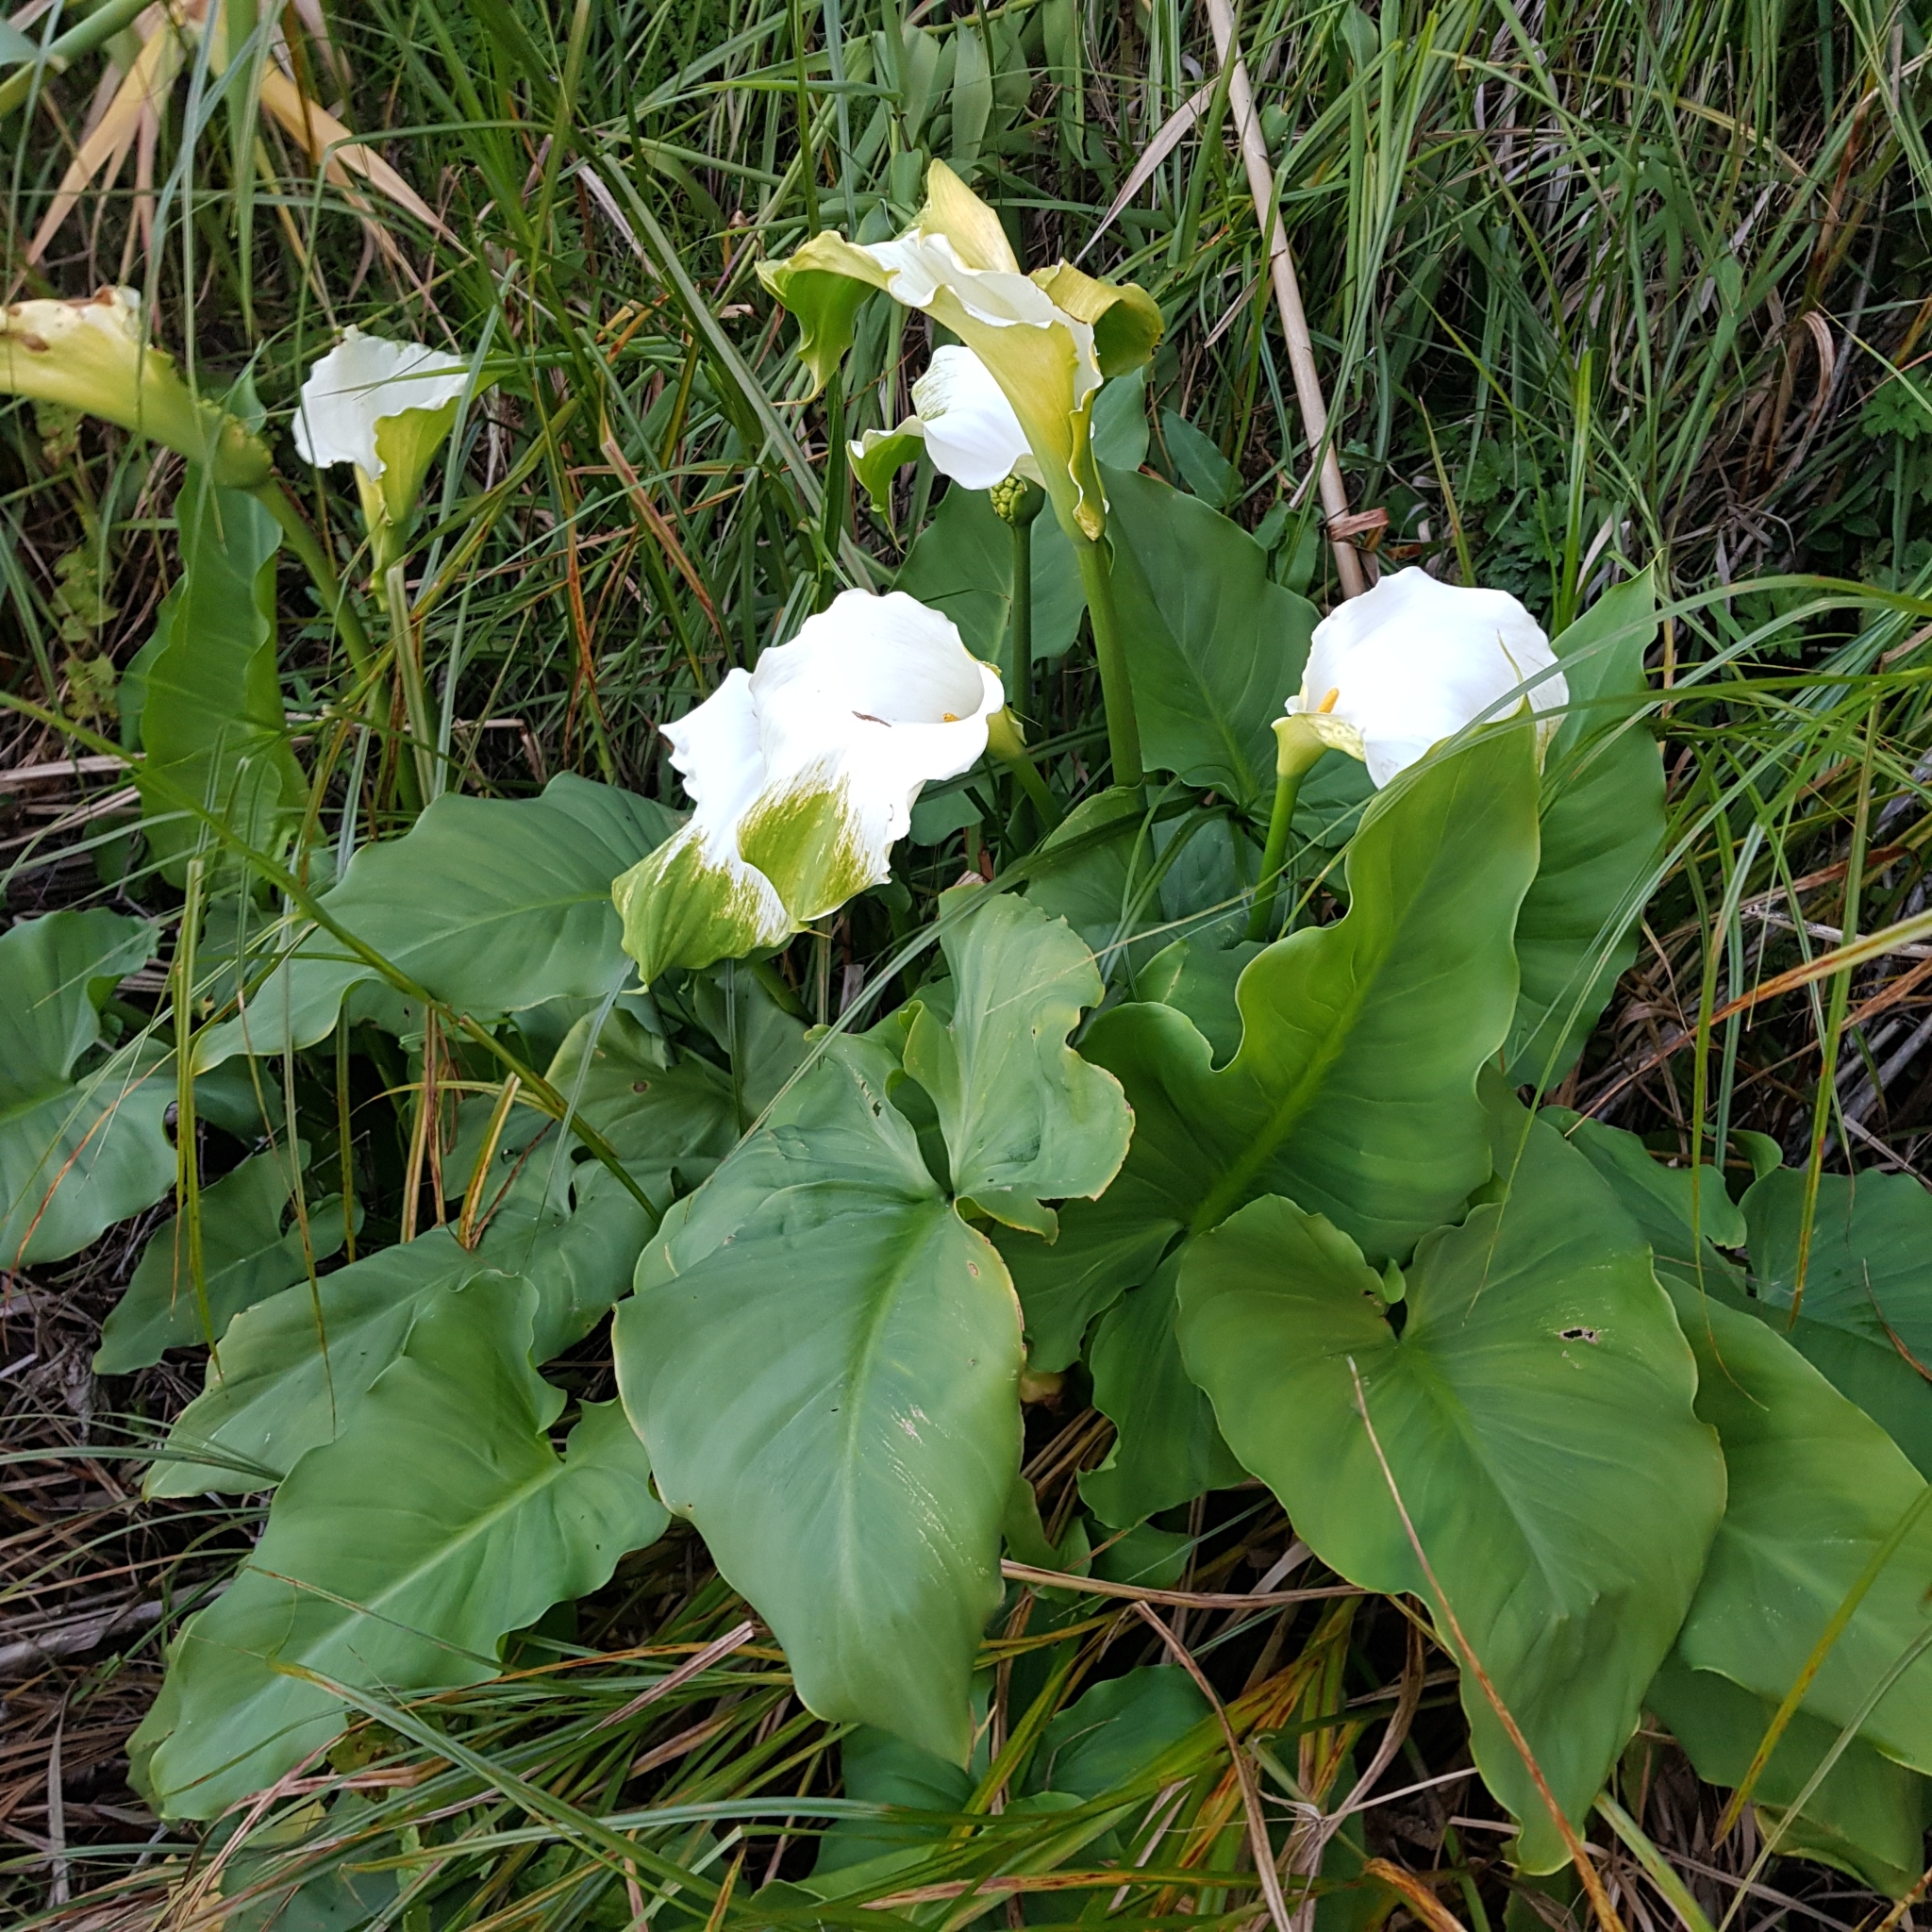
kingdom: Plantae
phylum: Tracheophyta
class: Liliopsida
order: Alismatales
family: Araceae
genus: Zantedeschia
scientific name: Zantedeschia aethiopica
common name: Altar-lily
